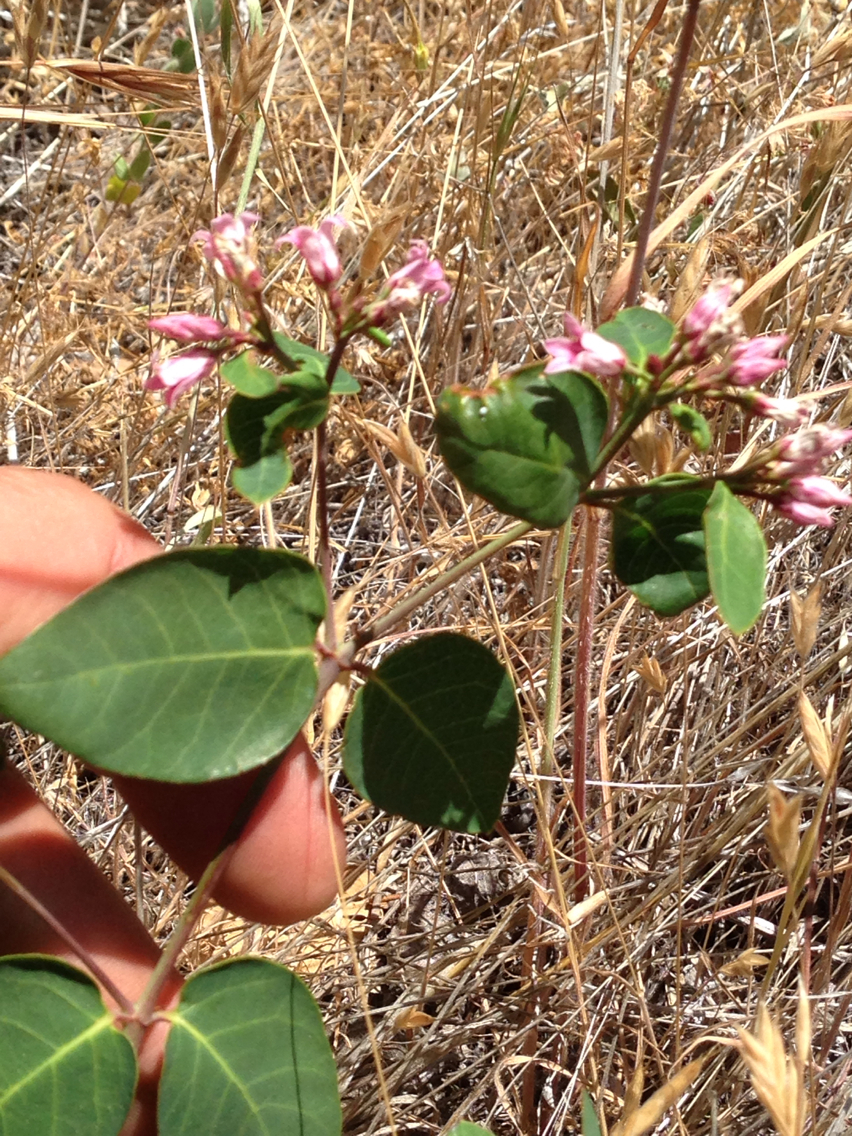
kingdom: Plantae
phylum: Tracheophyta
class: Magnoliopsida
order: Gentianales
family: Apocynaceae
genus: Apocynum
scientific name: Apocynum androsaemifolium
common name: Spreading dogbane
